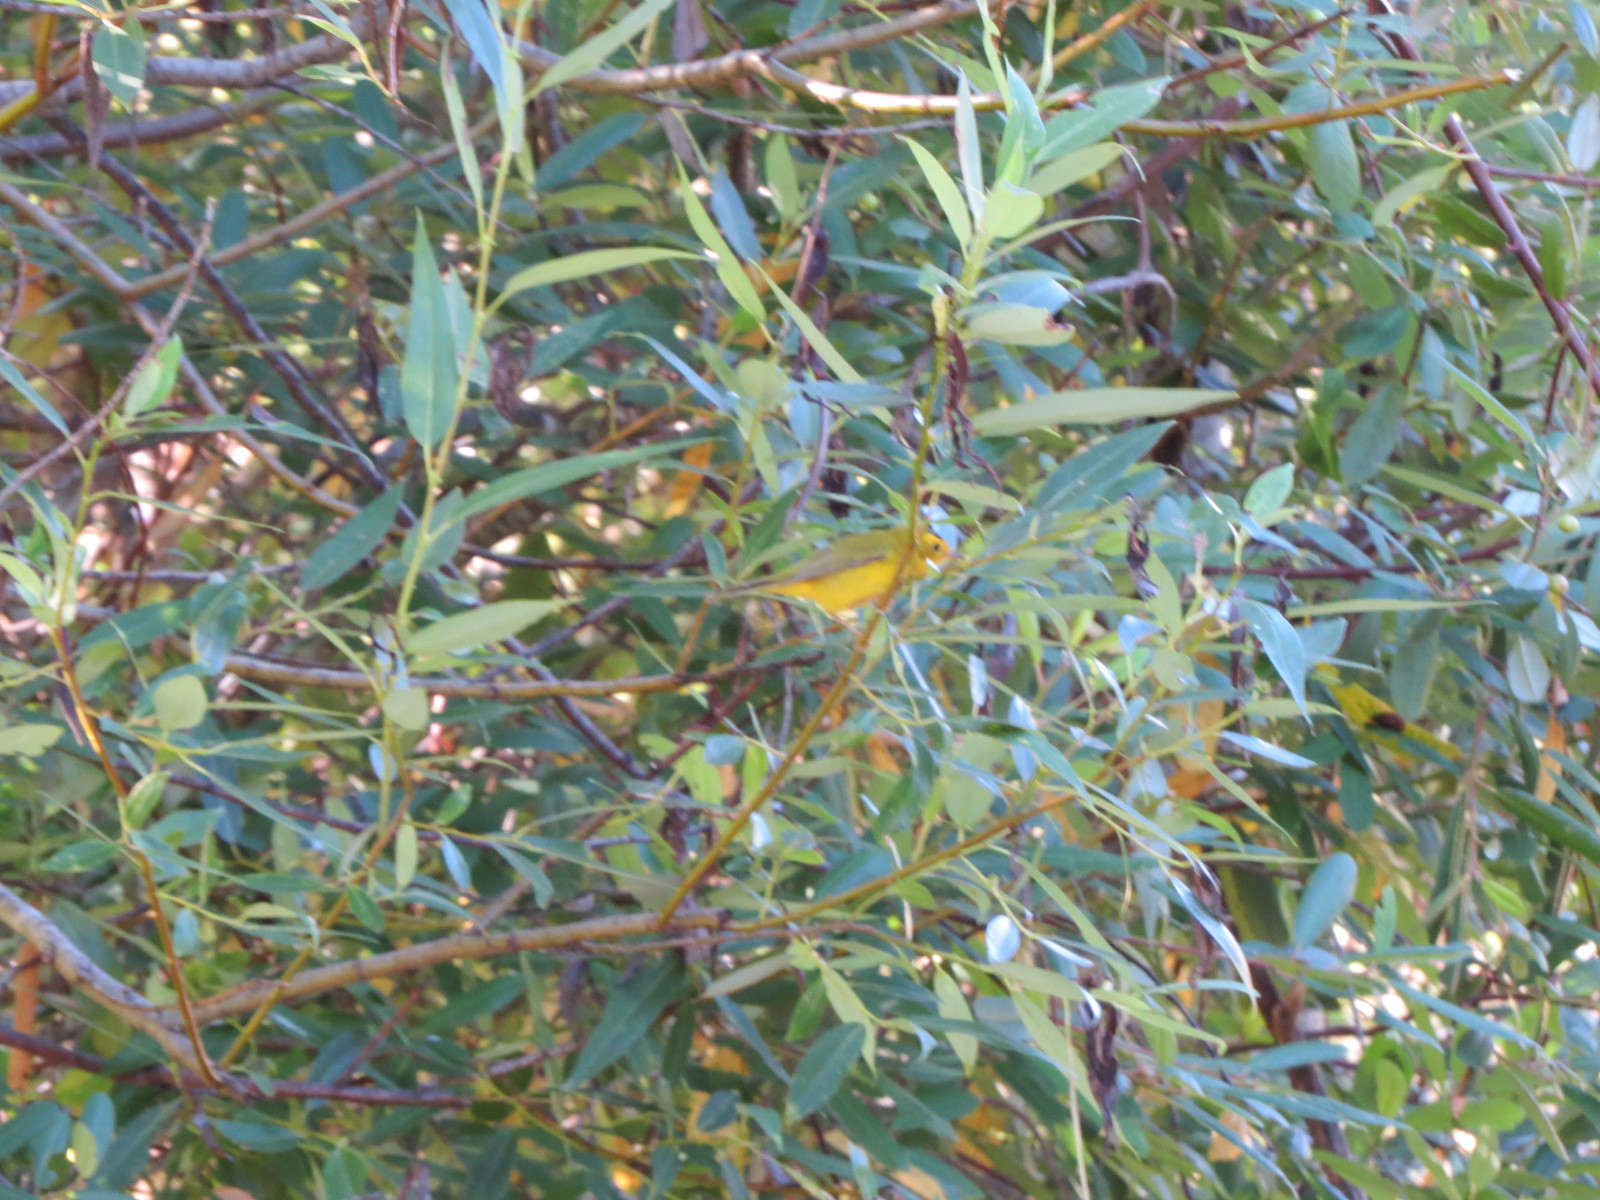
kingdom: Animalia
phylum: Chordata
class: Aves
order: Passeriformes
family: Parulidae
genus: Cardellina
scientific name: Cardellina pusilla
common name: Wilson's warbler
